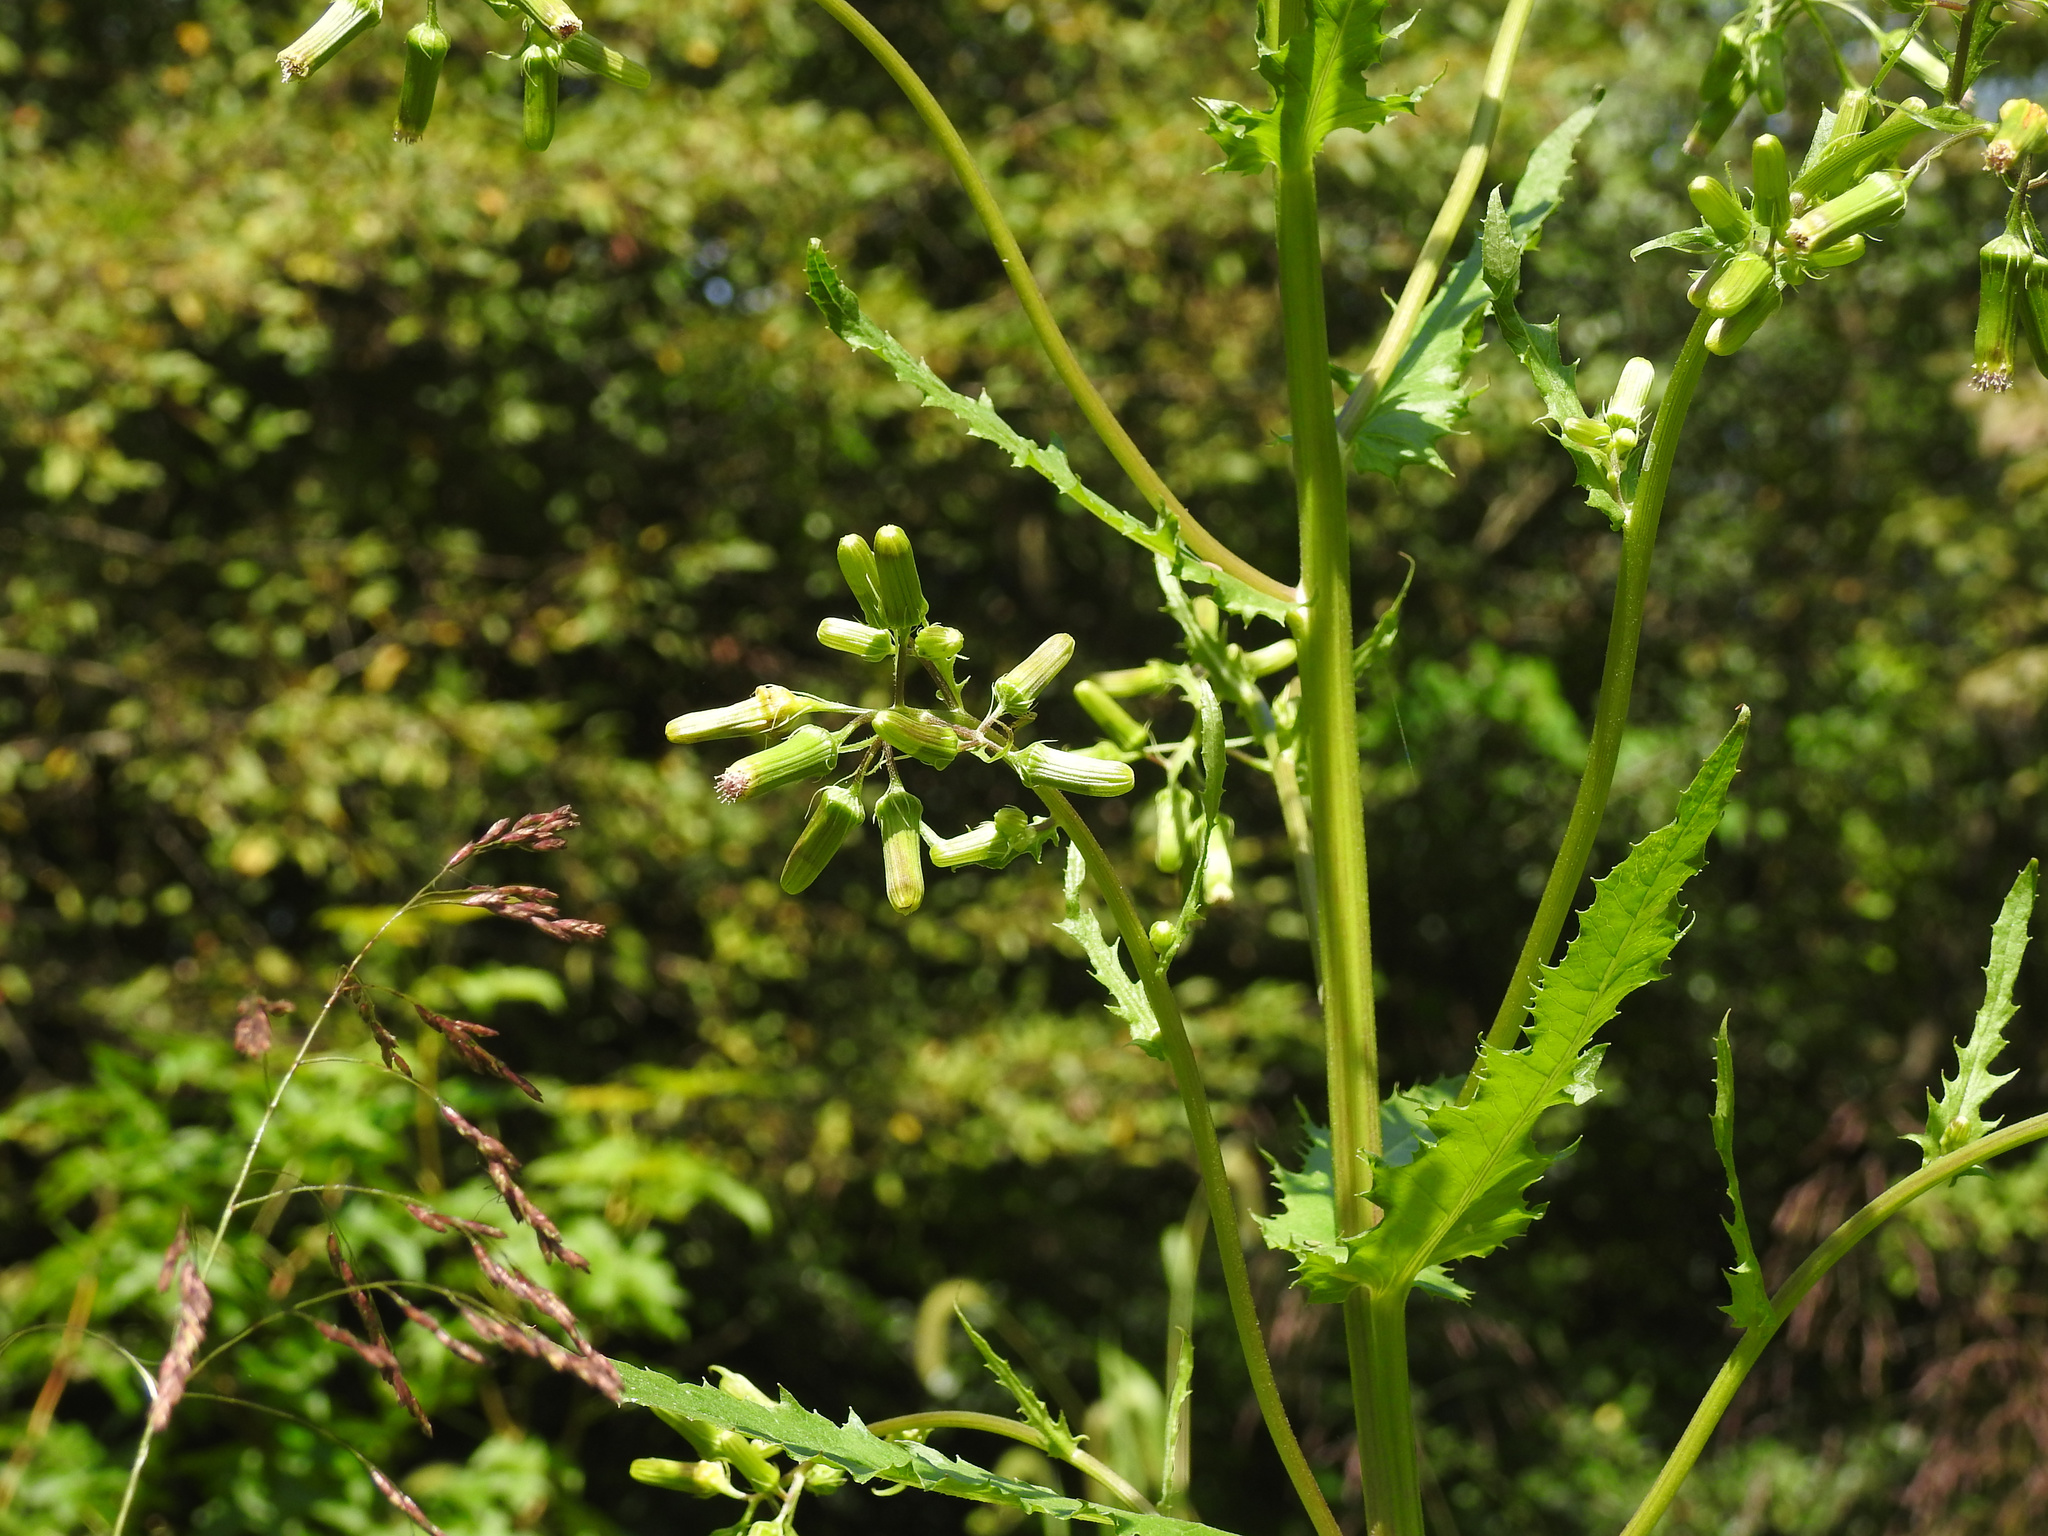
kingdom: Plantae
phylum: Tracheophyta
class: Magnoliopsida
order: Asterales
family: Asteraceae
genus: Erechtites
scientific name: Erechtites hieraciifolius
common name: American burnweed
